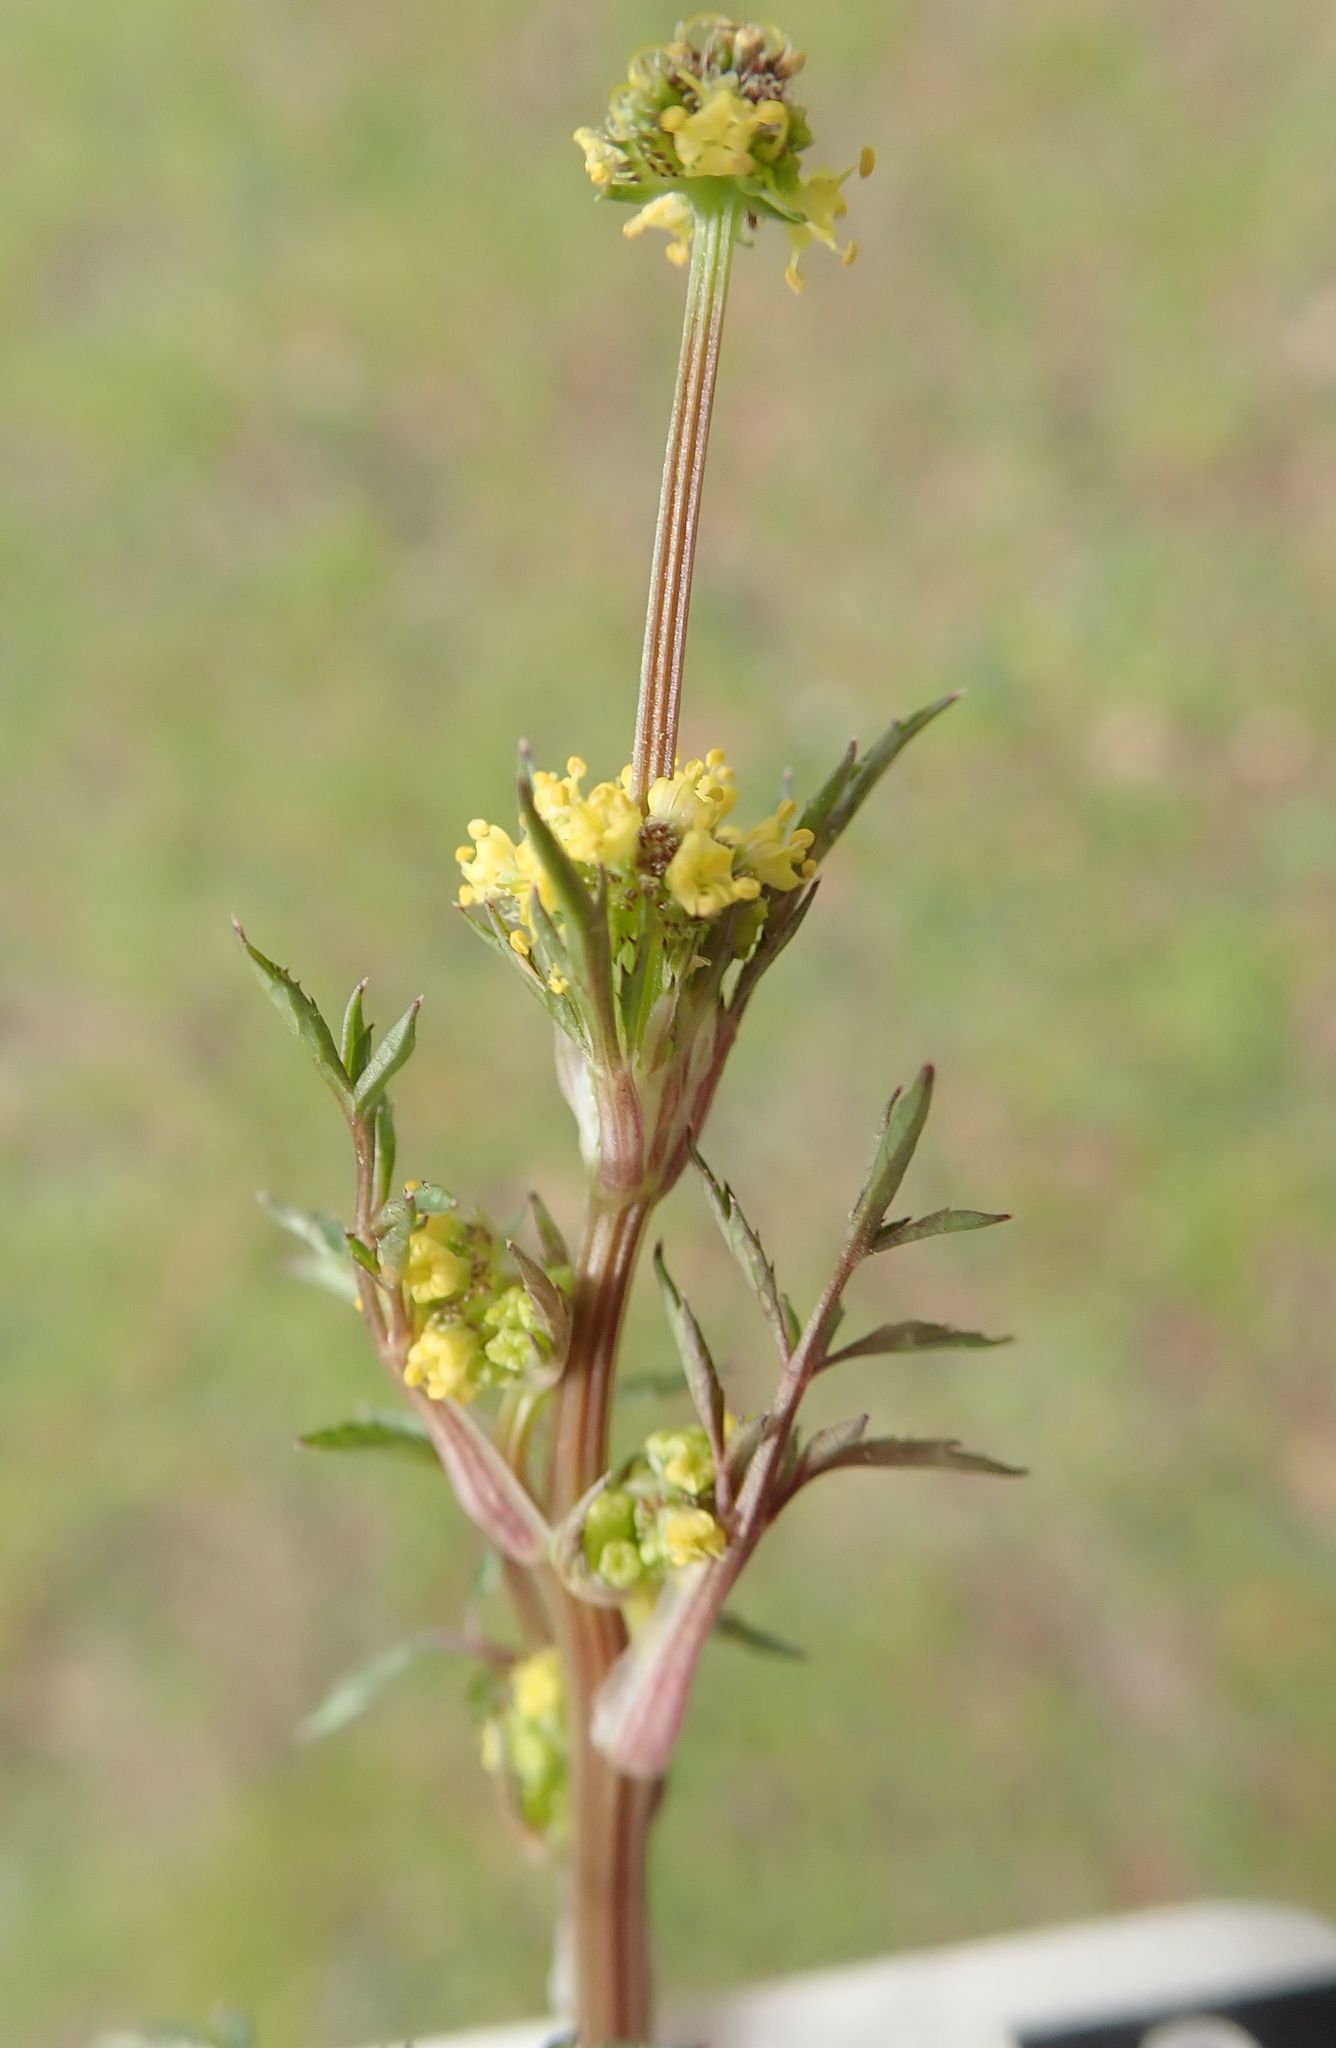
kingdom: Plantae
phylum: Tracheophyta
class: Magnoliopsida
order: Apiales
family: Apiaceae
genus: Sanicula
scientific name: Sanicula bipinnata
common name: Poison sanicle
